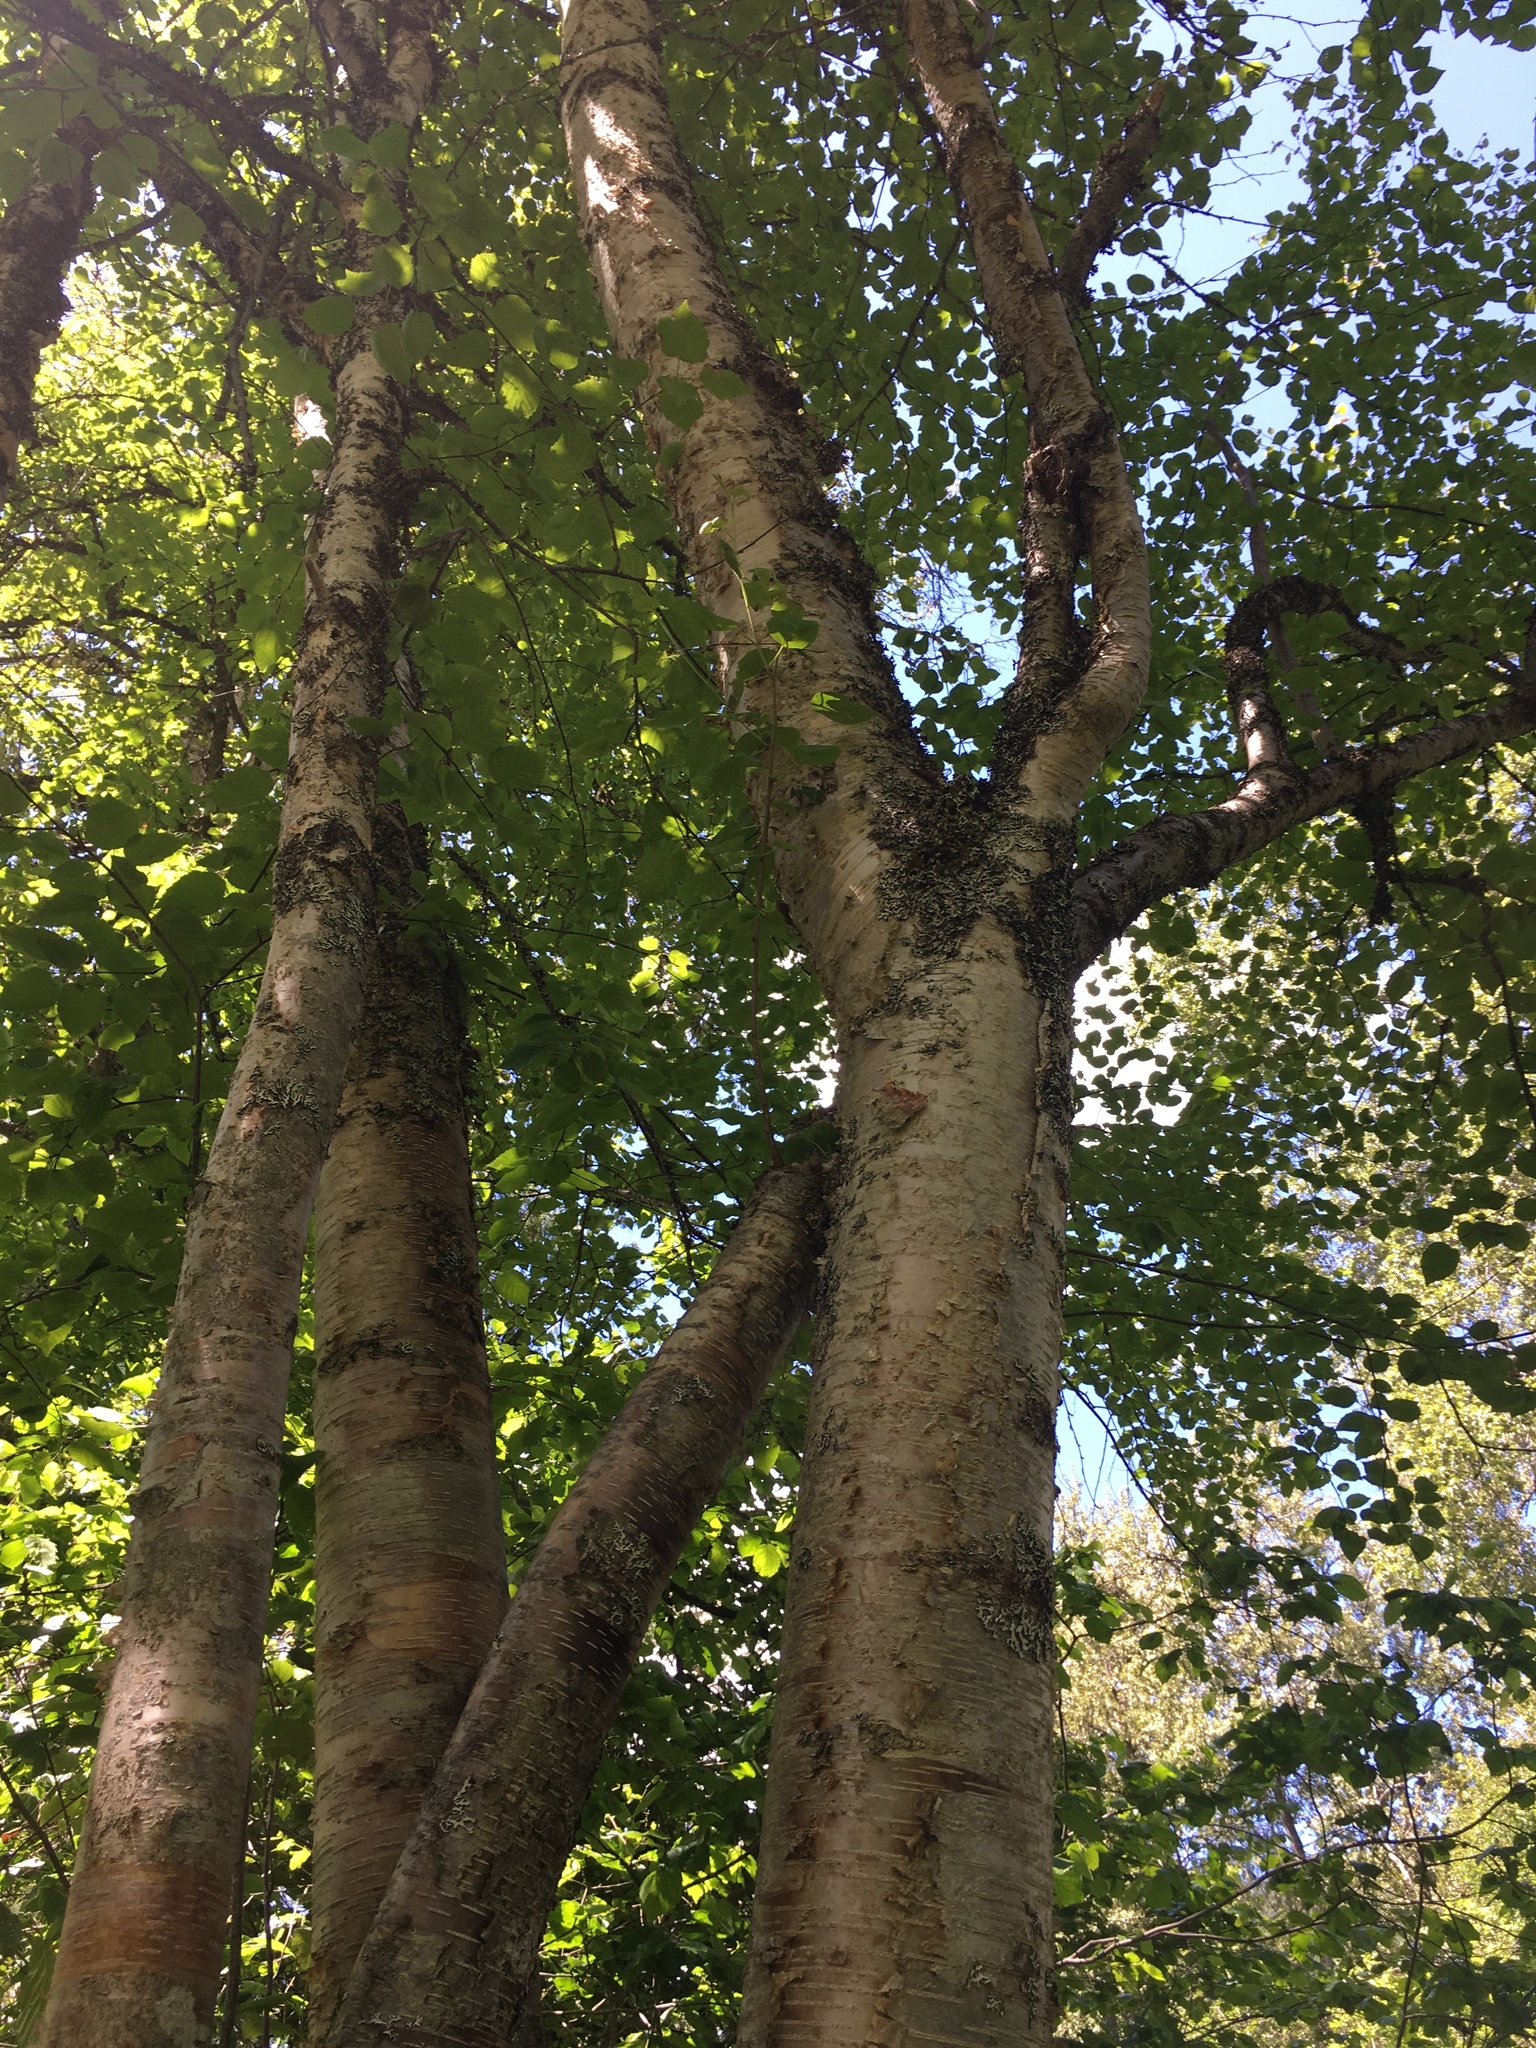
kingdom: Plantae
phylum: Tracheophyta
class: Magnoliopsida
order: Fagales
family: Betulaceae
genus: Betula
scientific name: Betula papyrifera
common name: Paper birch
